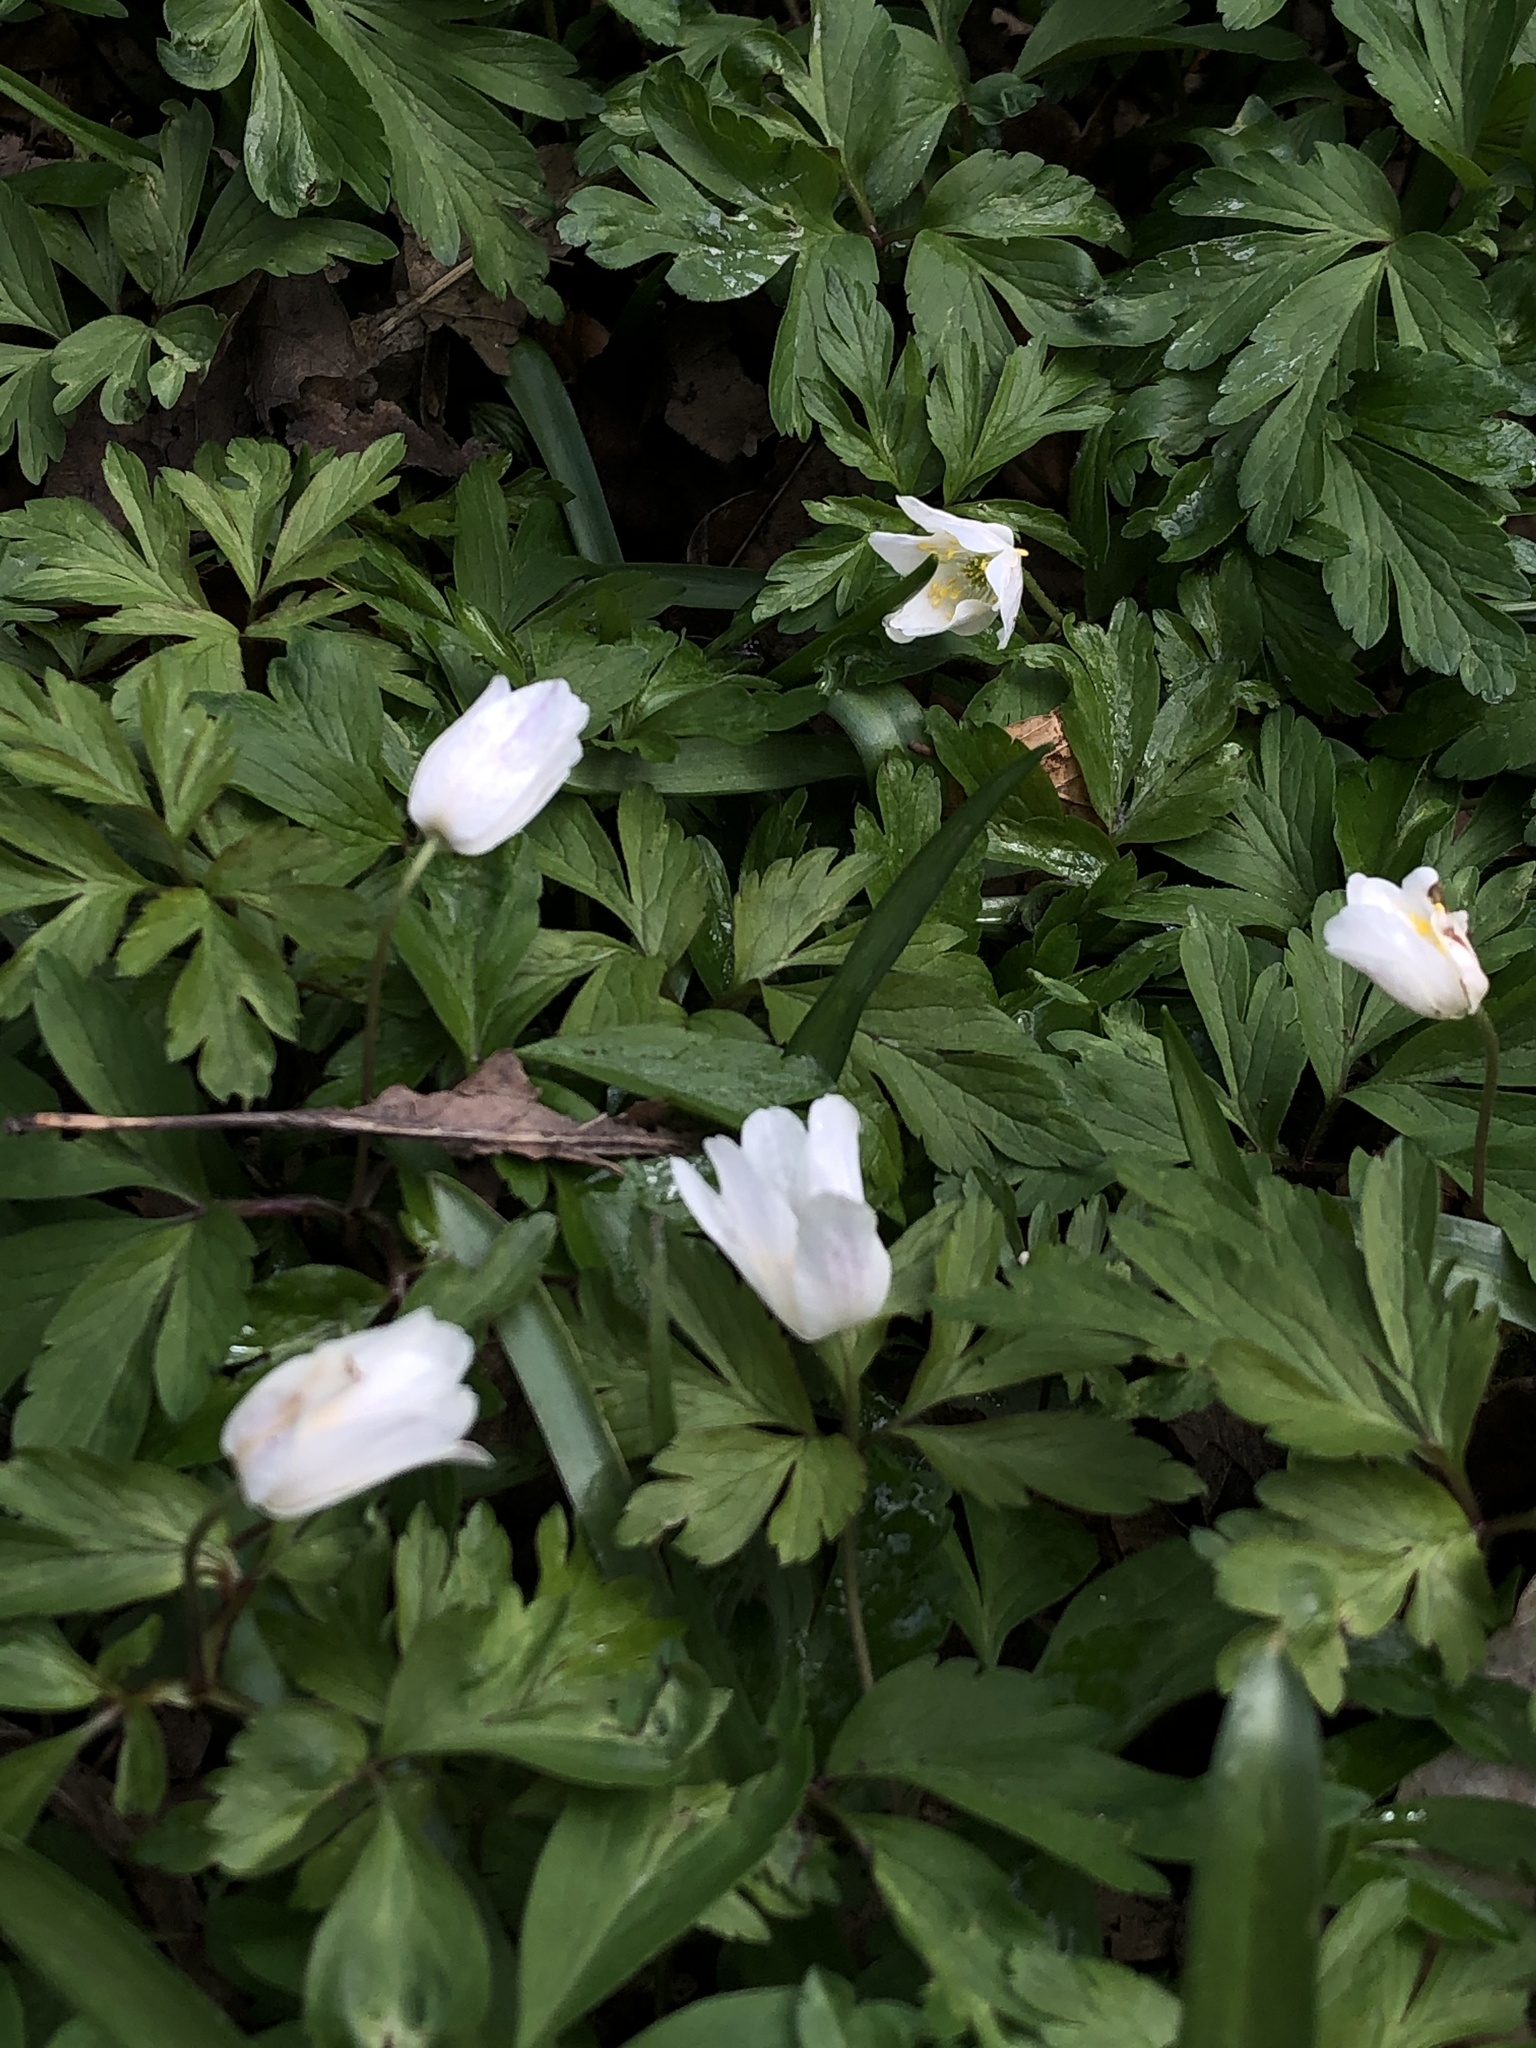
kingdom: Plantae
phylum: Tracheophyta
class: Magnoliopsida
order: Ranunculales
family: Ranunculaceae
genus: Anemone
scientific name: Anemone nemorosa
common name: Wood anemone
